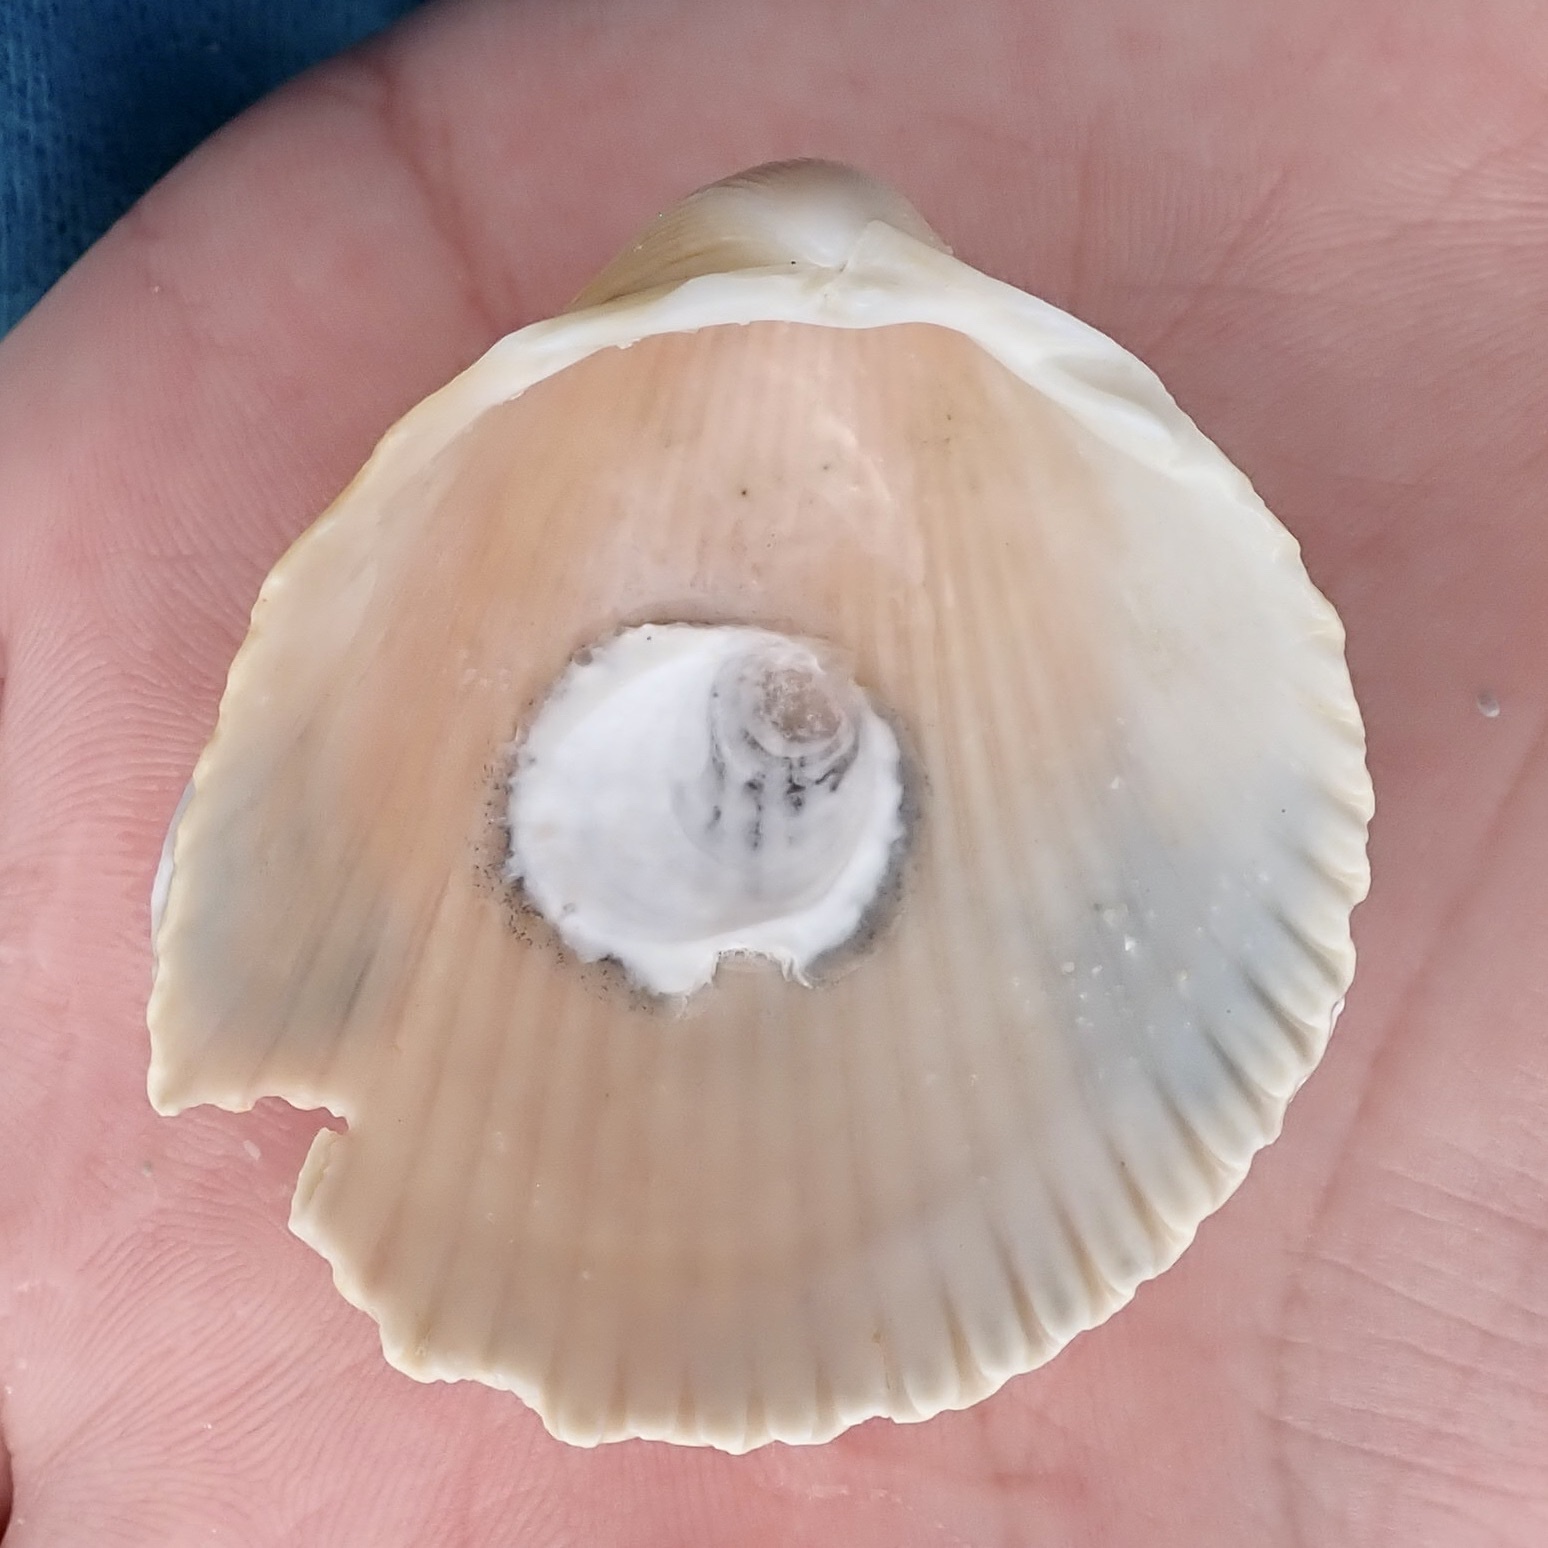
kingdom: Animalia
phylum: Mollusca
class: Bivalvia
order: Cardiida
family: Cardiidae
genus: Dallocardia
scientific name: Dallocardia muricata
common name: Yellow pricklycockle
